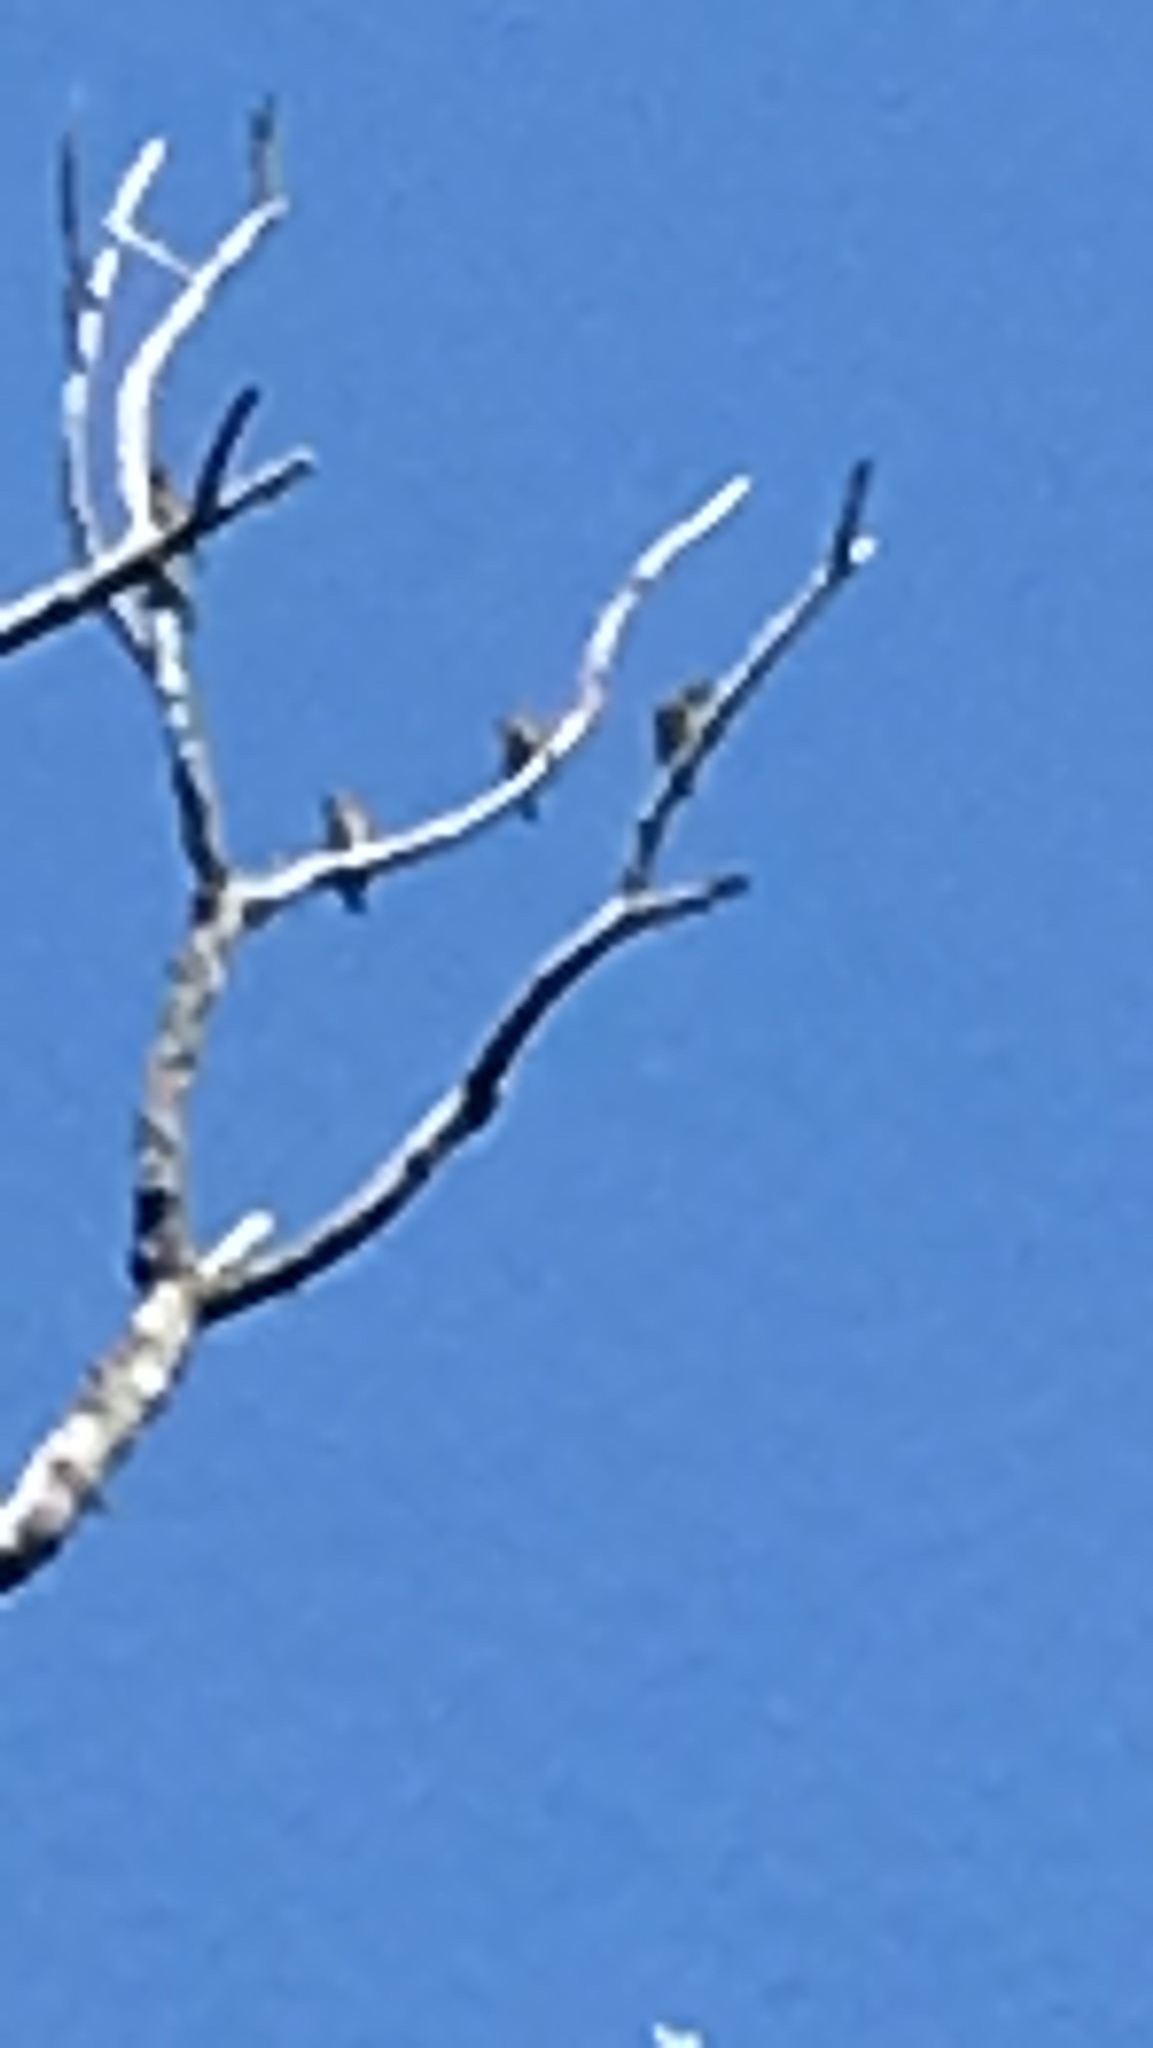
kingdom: Animalia
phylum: Chordata
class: Aves
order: Passeriformes
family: Bombycillidae
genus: Bombycilla
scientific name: Bombycilla cedrorum
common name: Cedar waxwing
